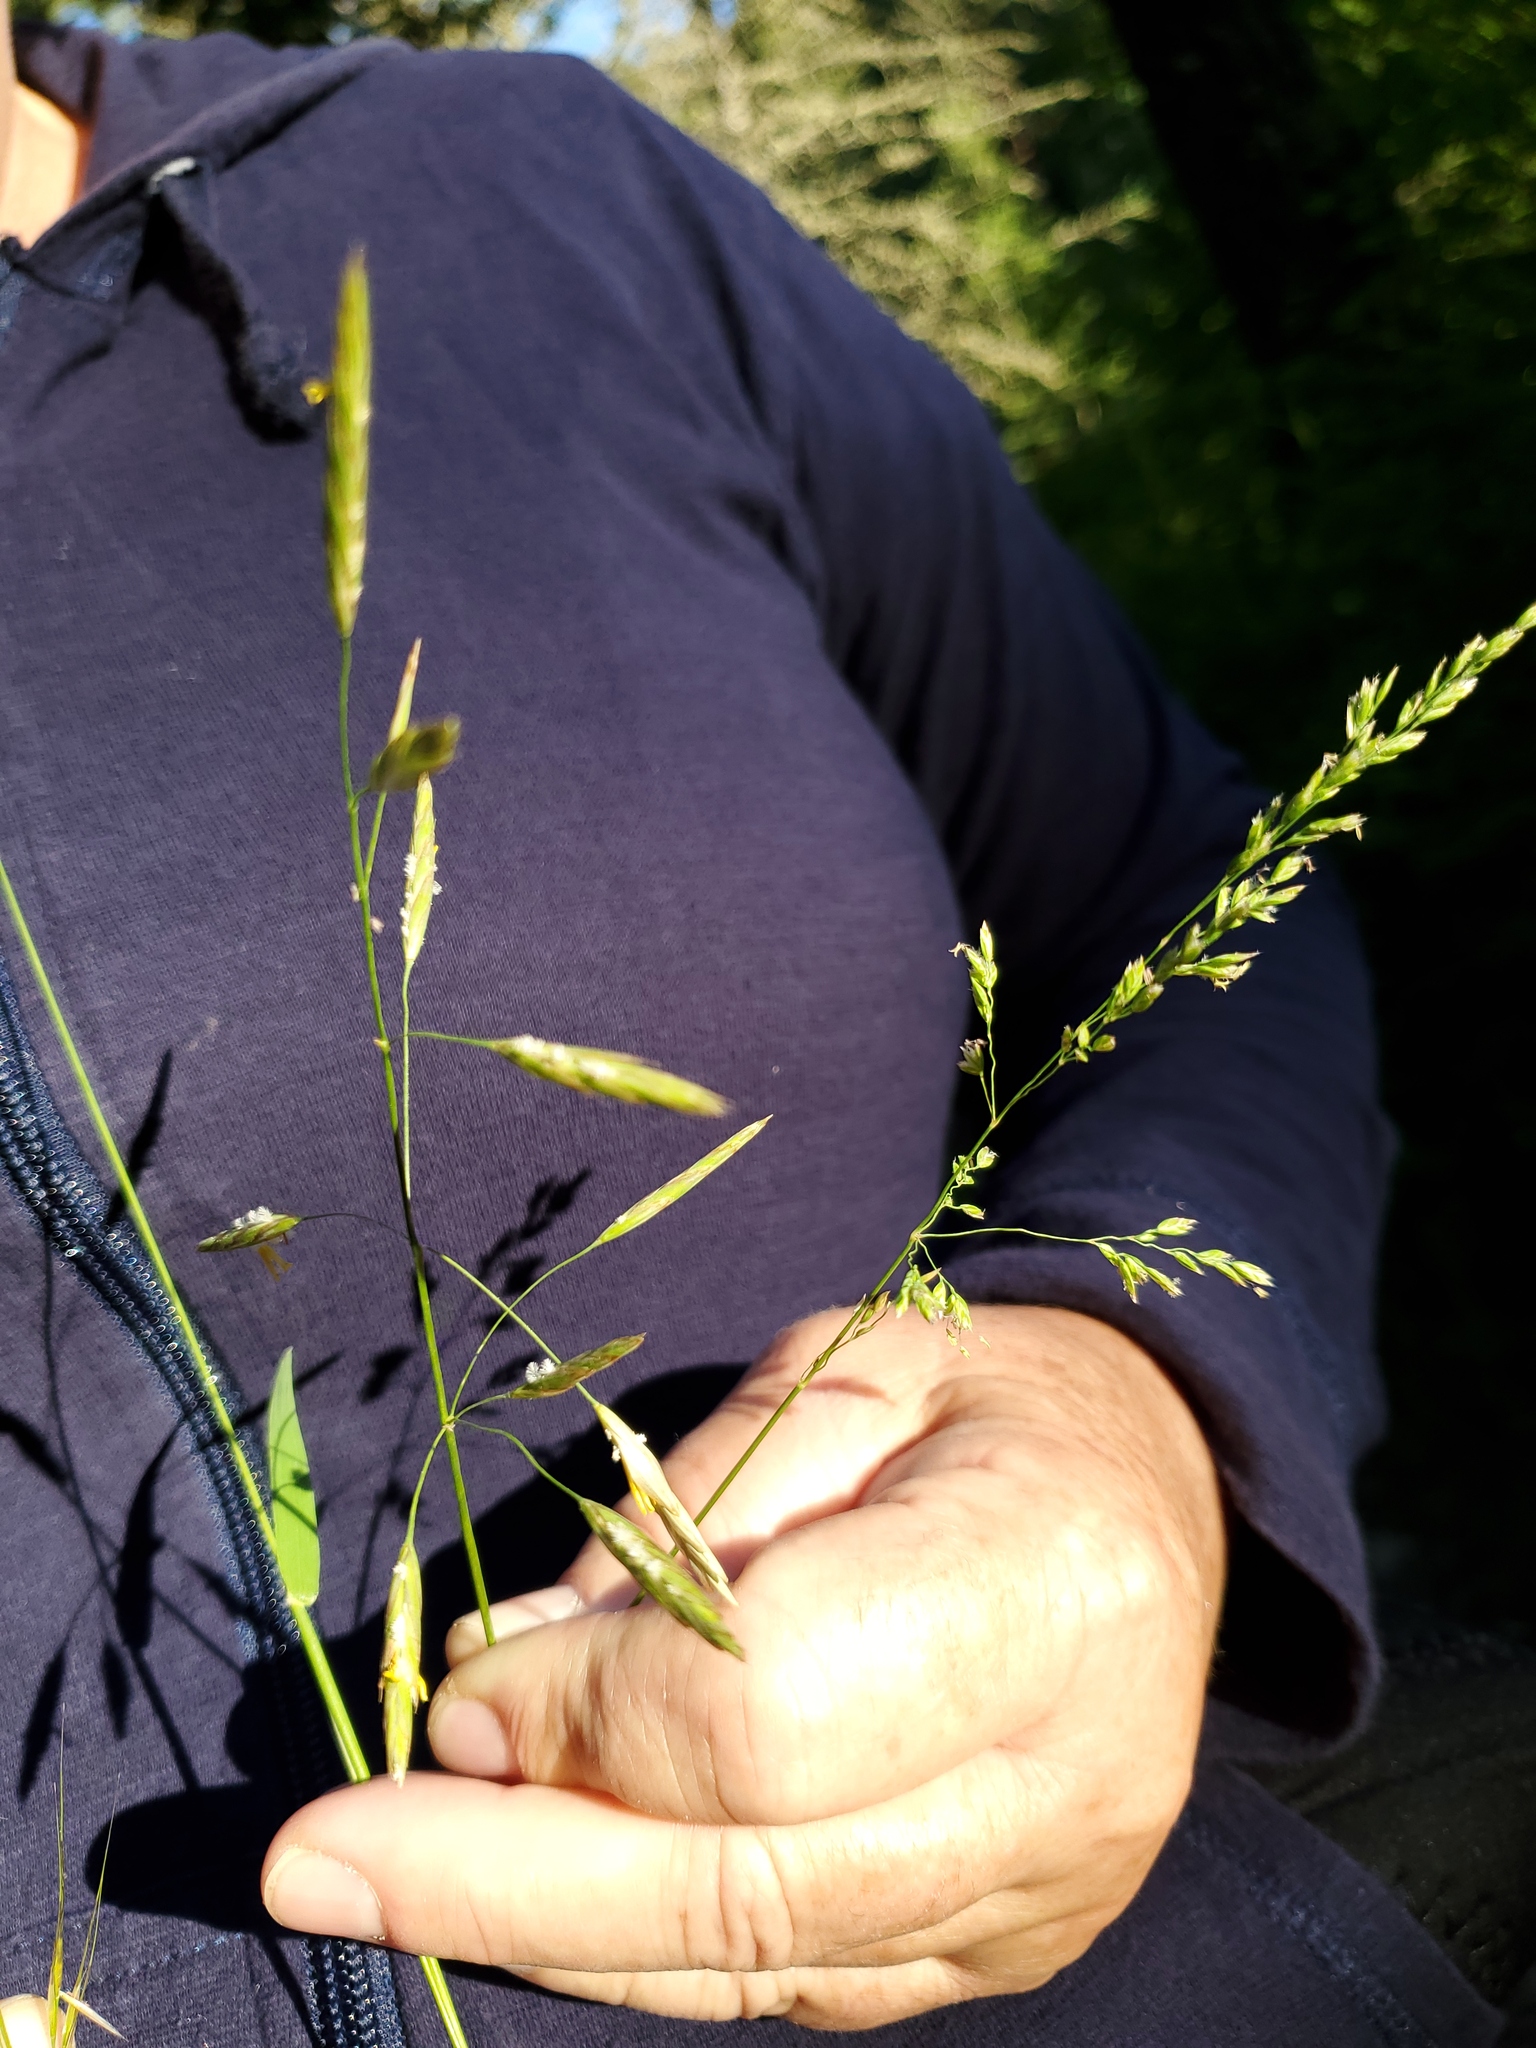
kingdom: Plantae
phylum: Tracheophyta
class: Liliopsida
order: Poales
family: Poaceae
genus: Bromus
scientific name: Bromus inermis
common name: Smooth brome
